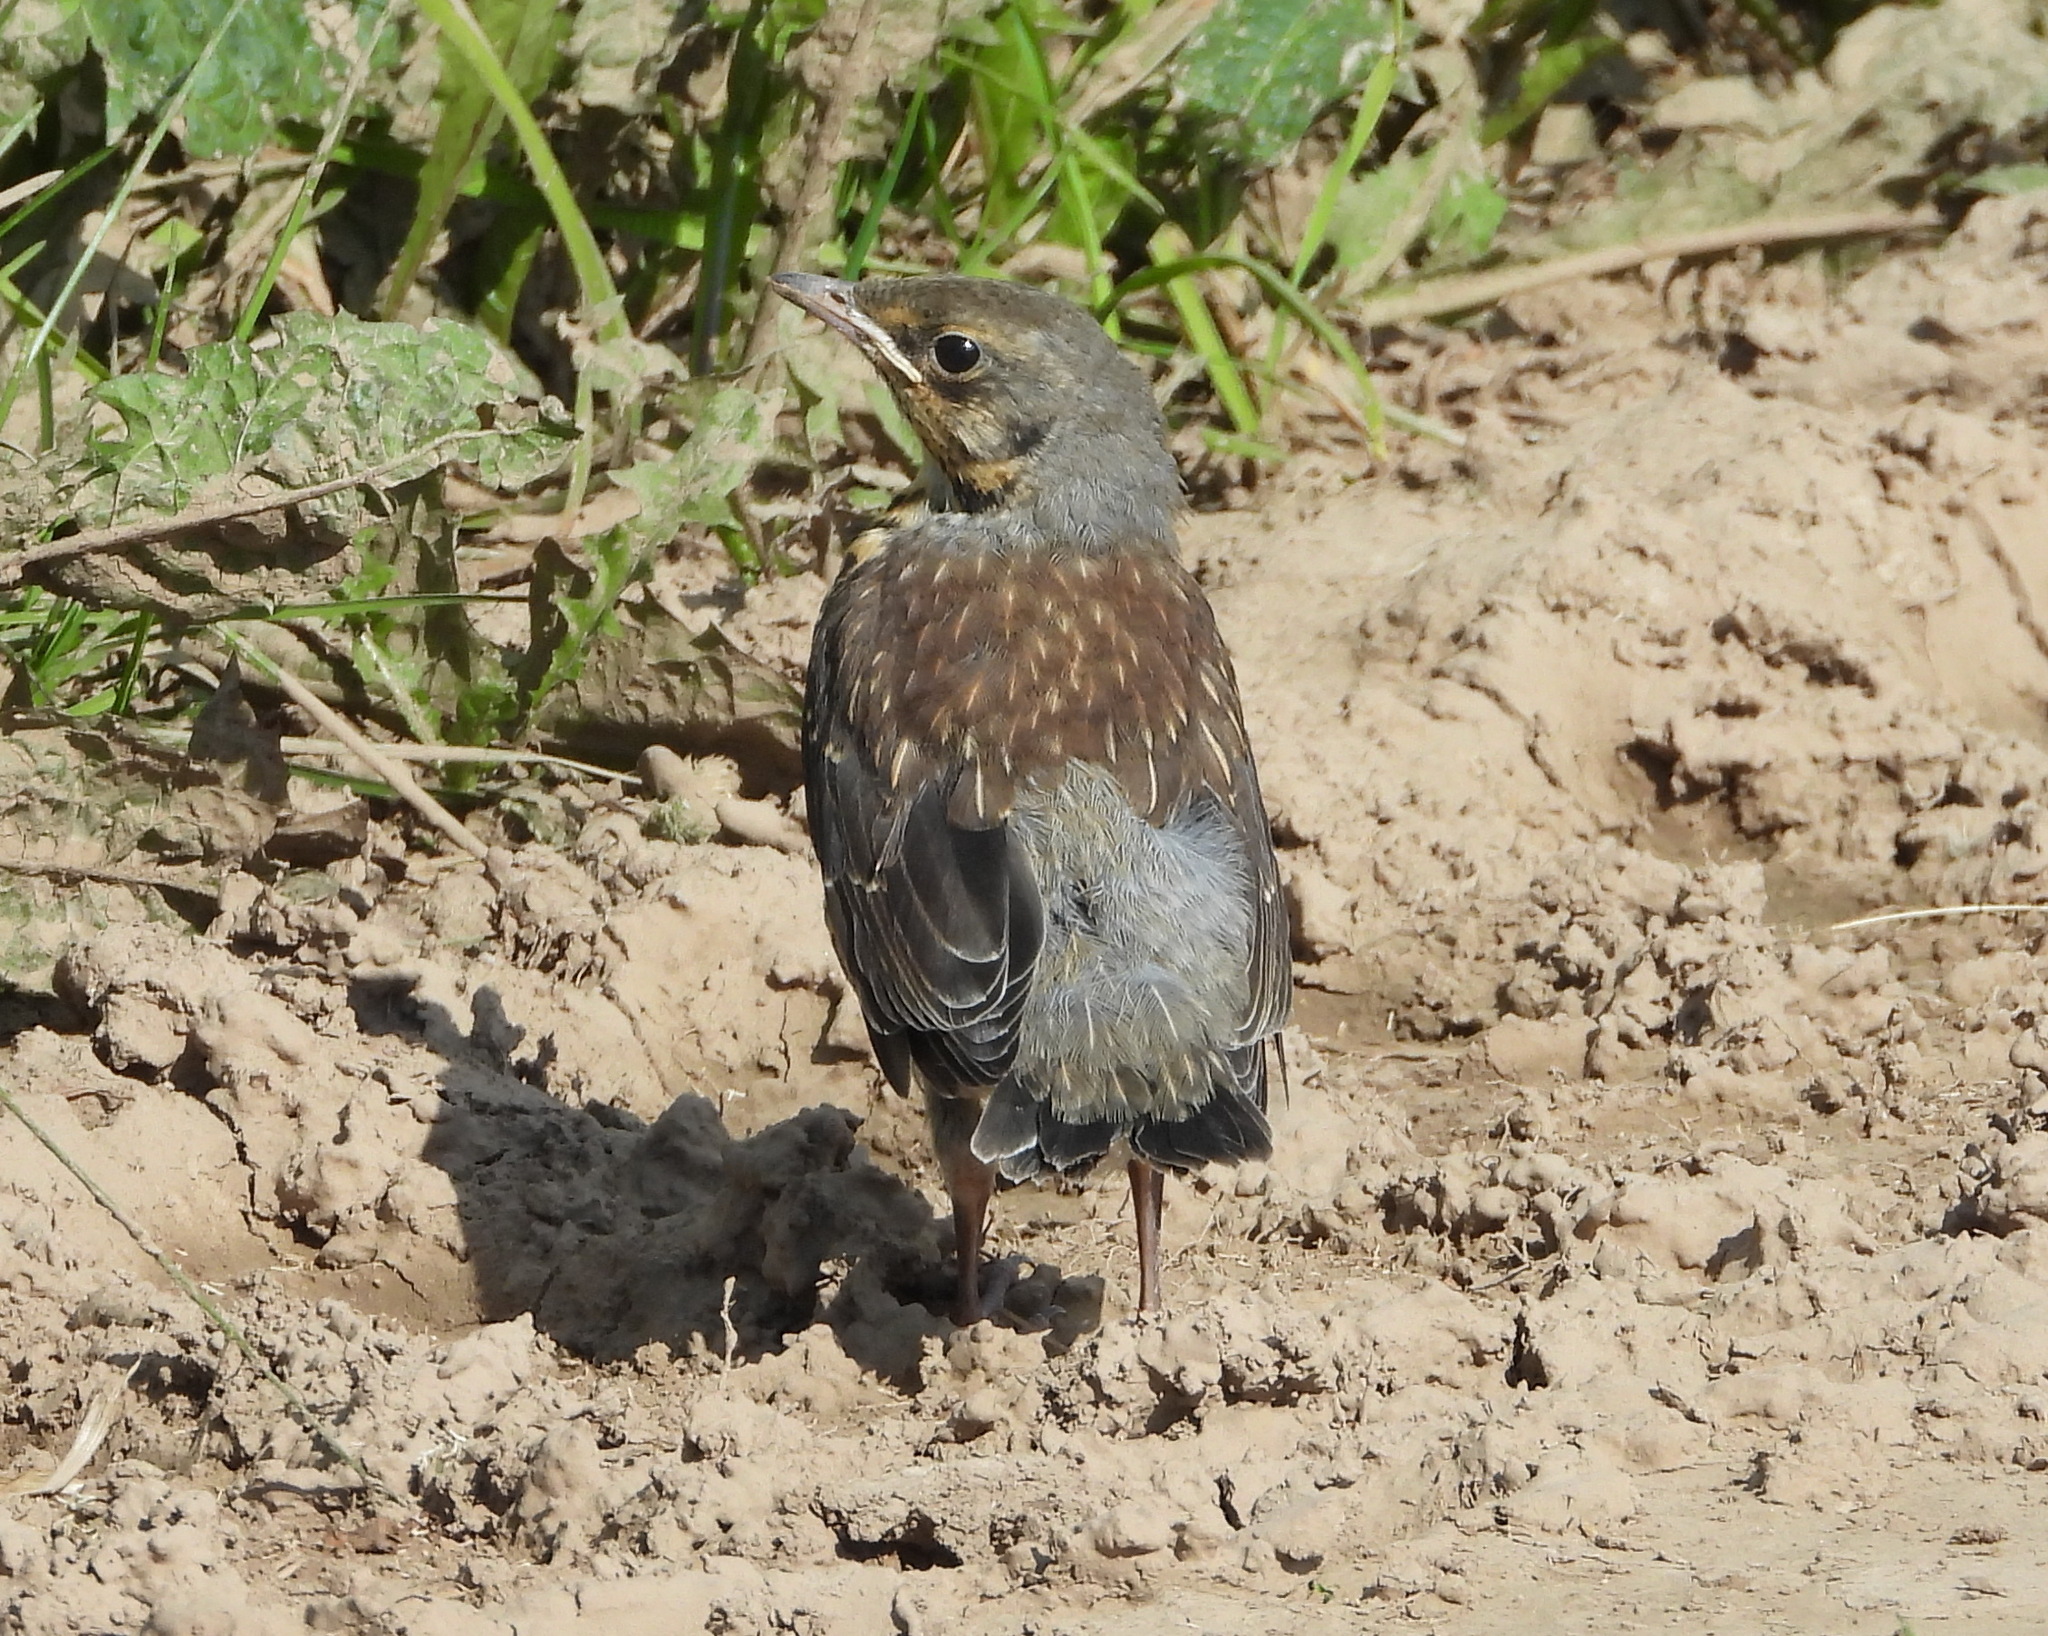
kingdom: Animalia
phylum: Chordata
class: Aves
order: Passeriformes
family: Turdidae
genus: Turdus
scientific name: Turdus pilaris
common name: Fieldfare
